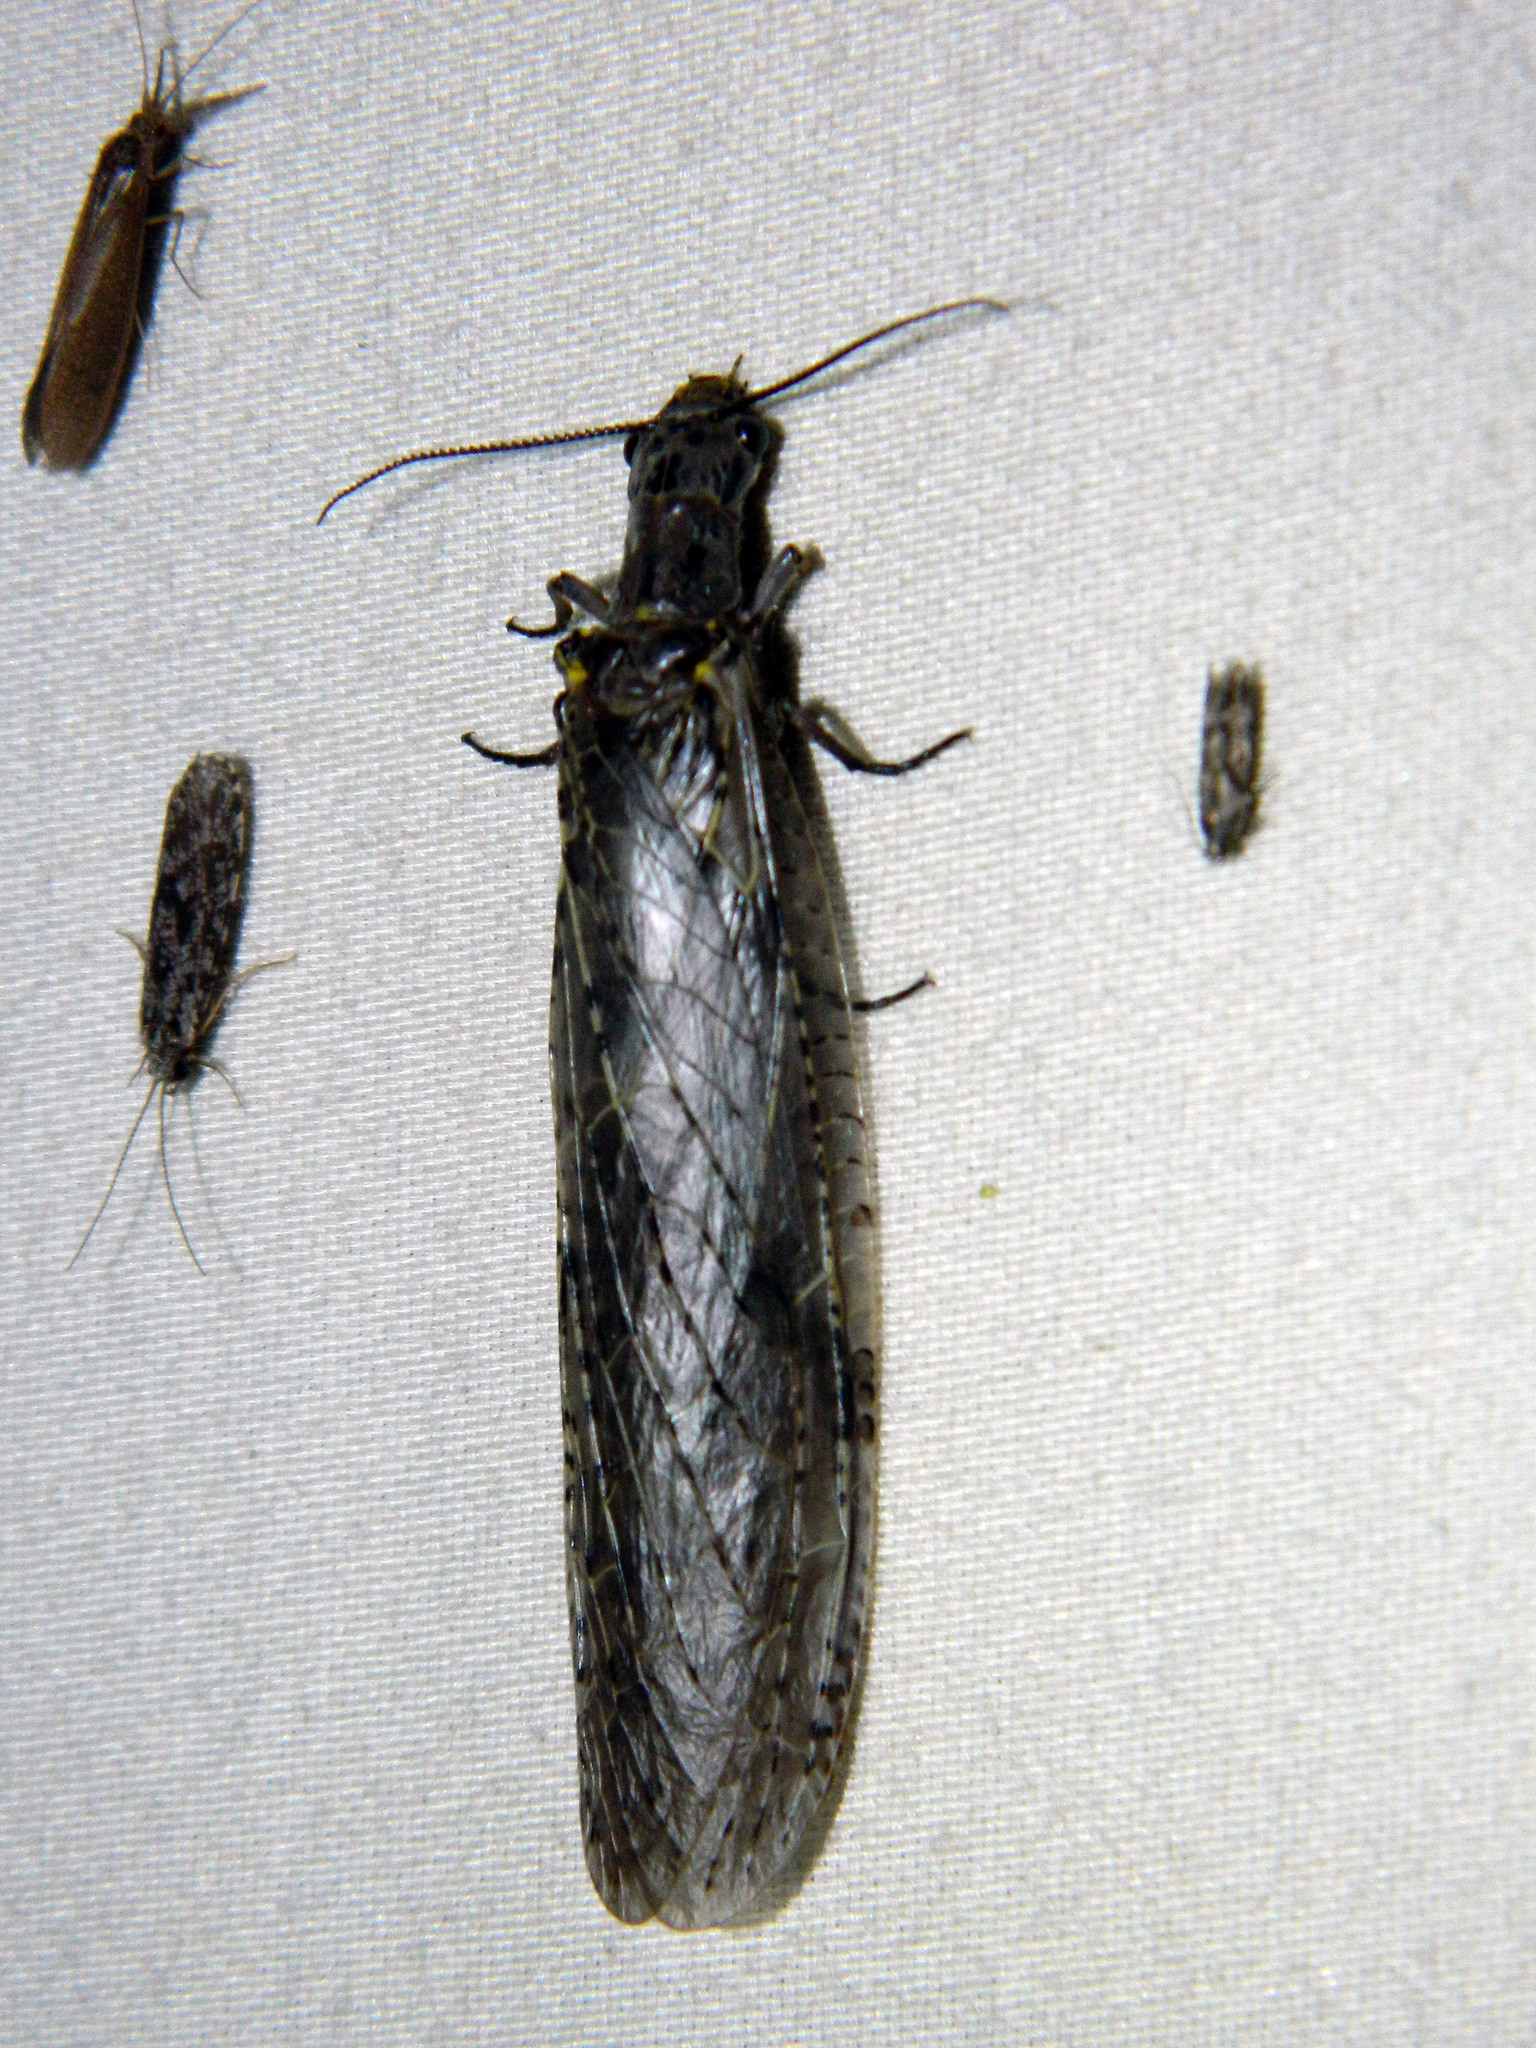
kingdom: Animalia
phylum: Arthropoda
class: Insecta
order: Megaloptera
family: Corydalidae
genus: Chauliodes
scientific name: Chauliodes rastricornis
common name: Spring fishfly
